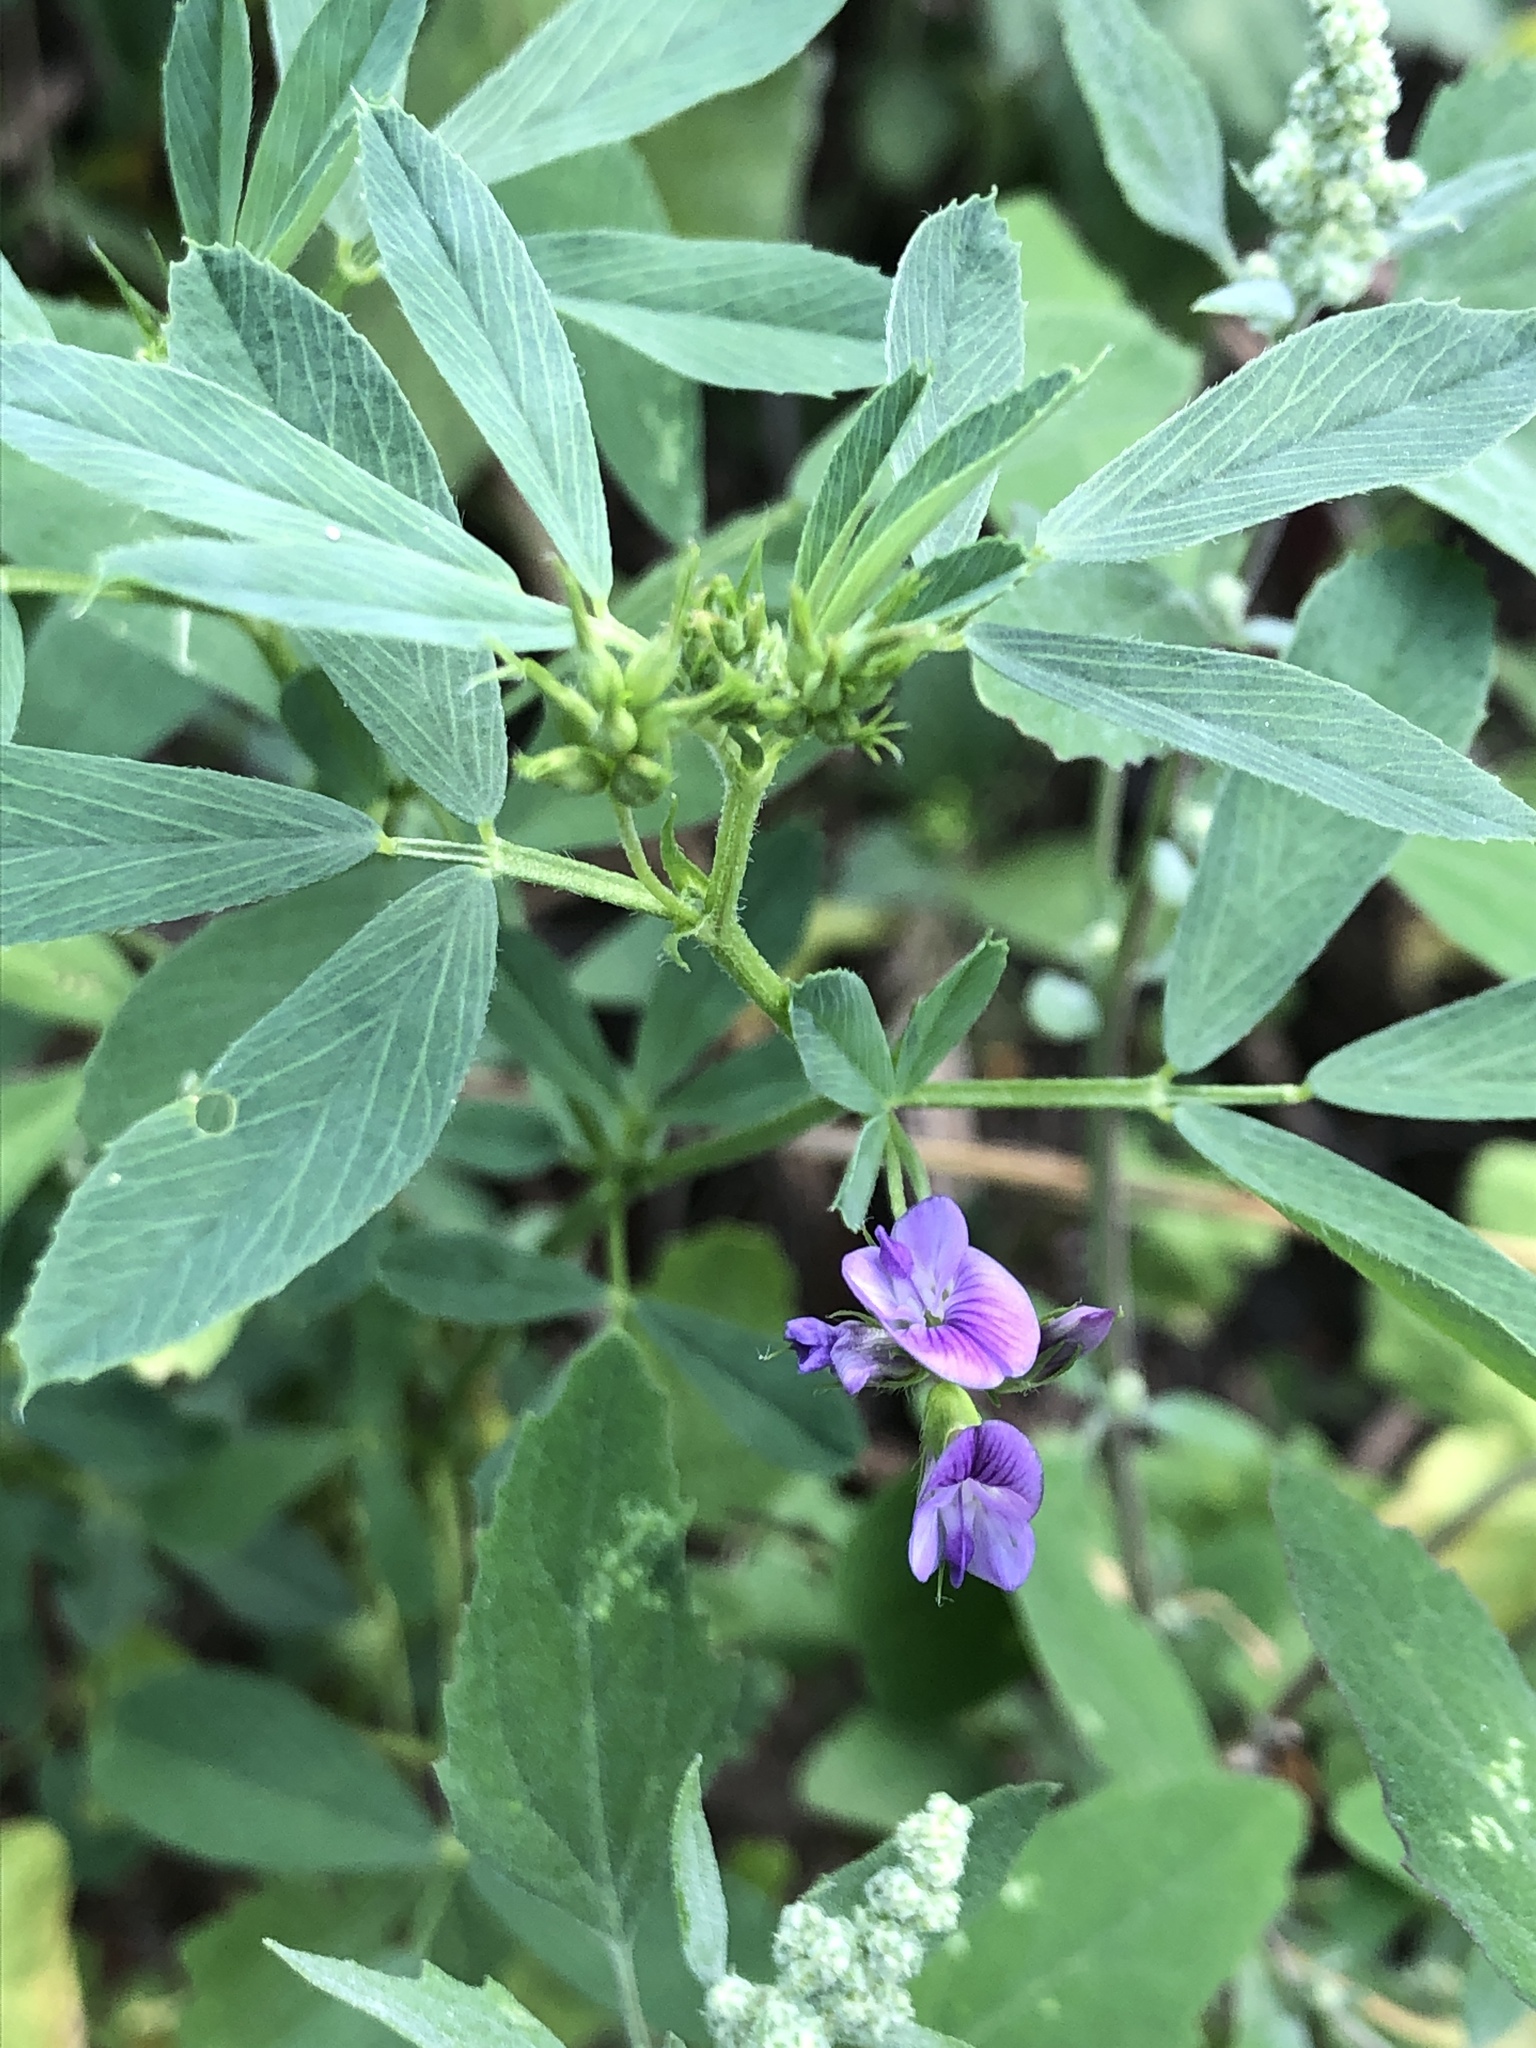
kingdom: Plantae
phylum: Tracheophyta
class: Magnoliopsida
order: Fabales
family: Fabaceae
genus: Medicago
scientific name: Medicago sativa
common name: Alfalfa
